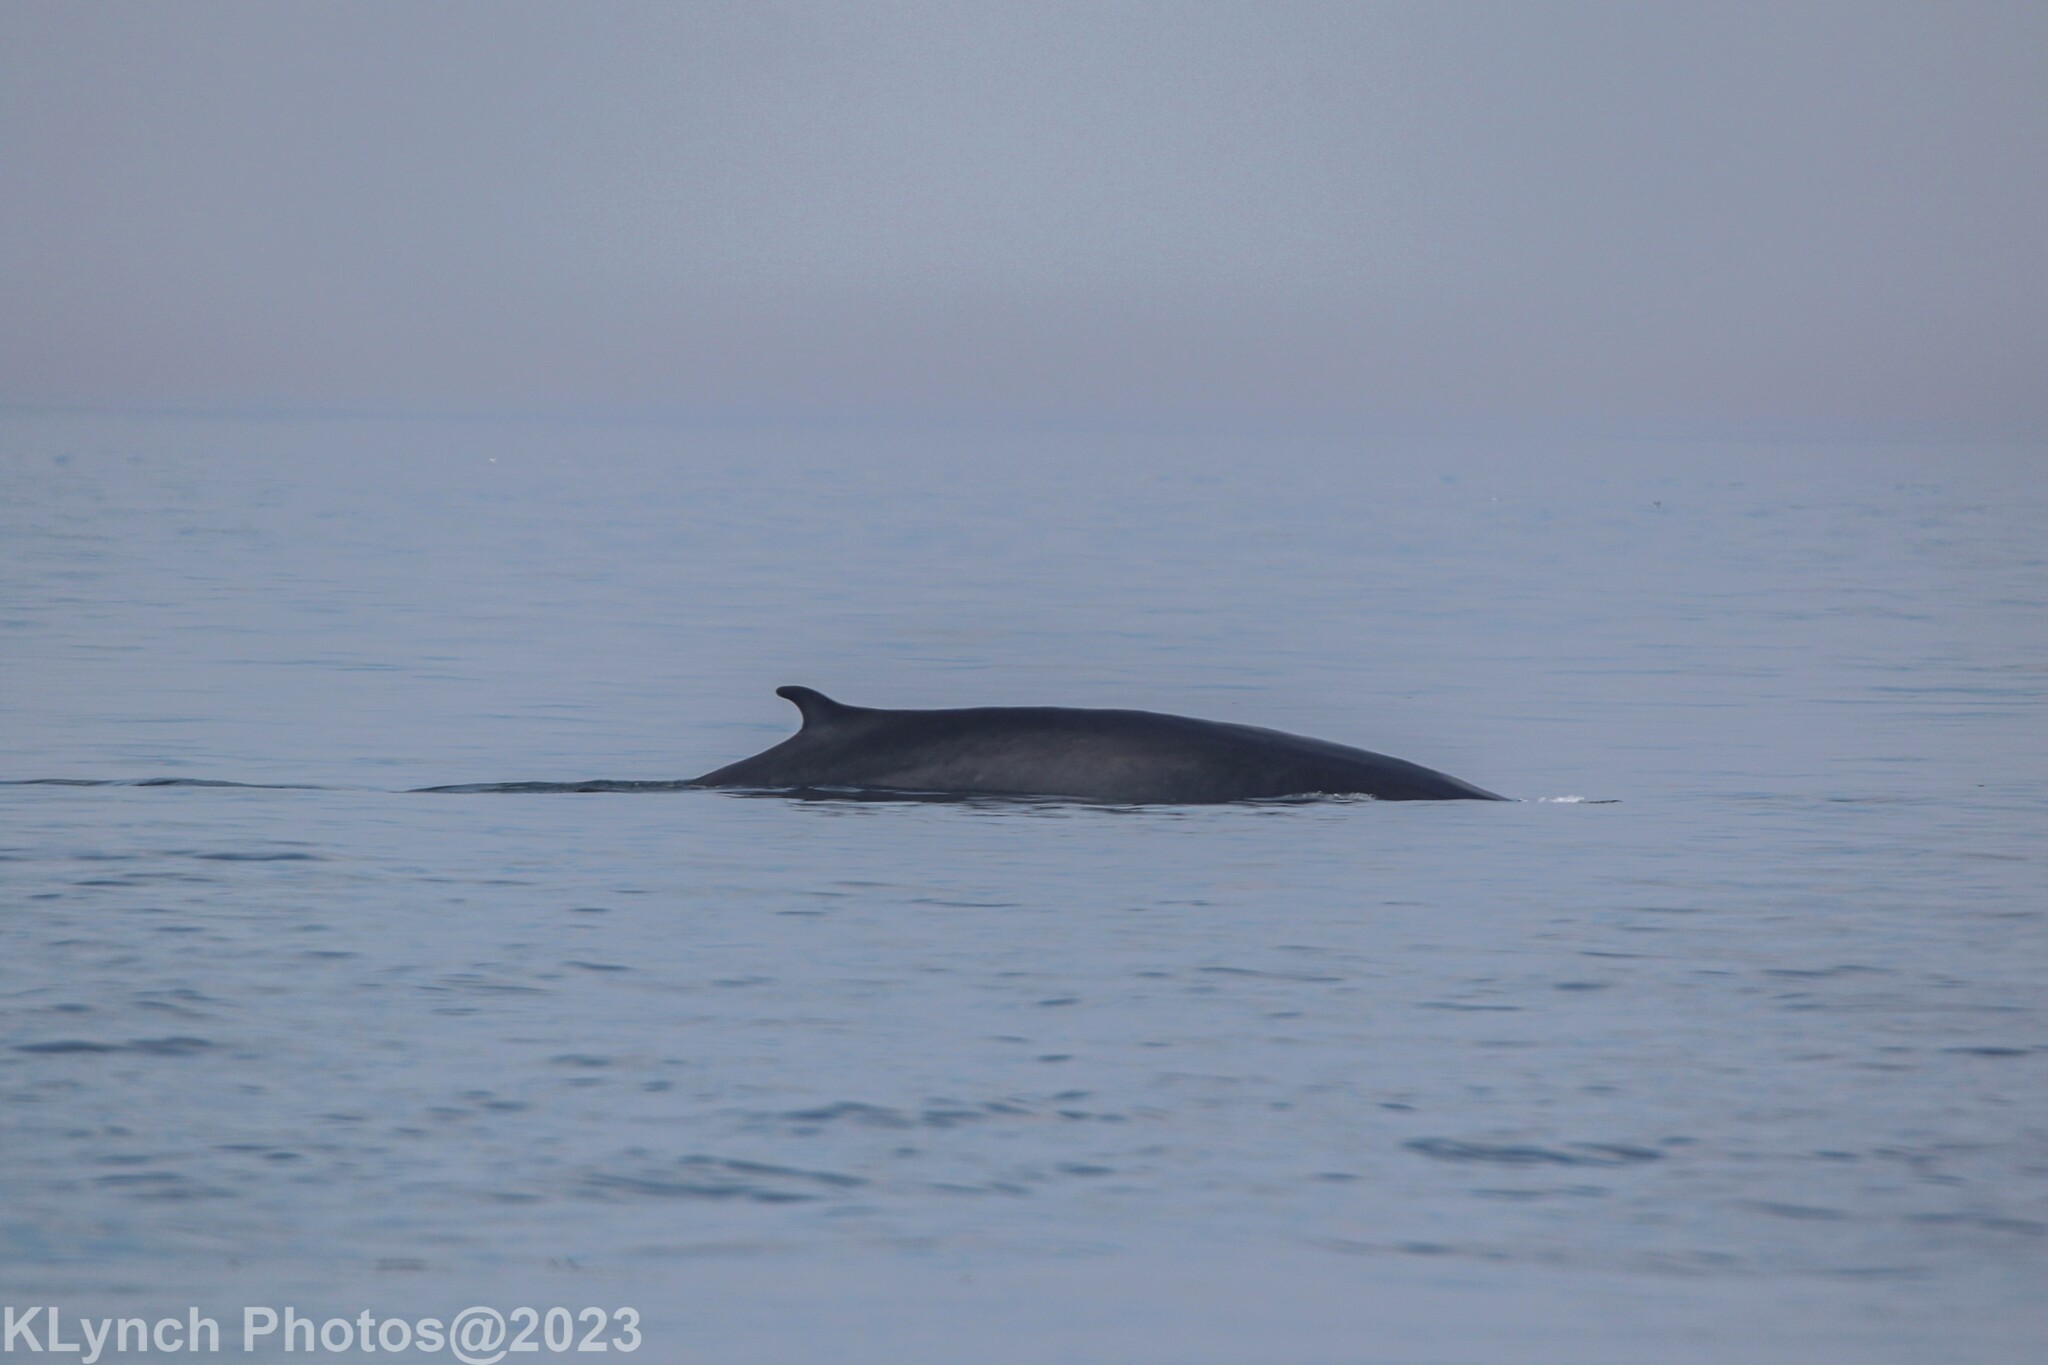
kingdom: Animalia
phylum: Chordata
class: Mammalia
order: Cetacea
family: Balaenopteridae
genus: Balaenoptera
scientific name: Balaenoptera acutorostrata
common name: Common minke whale
